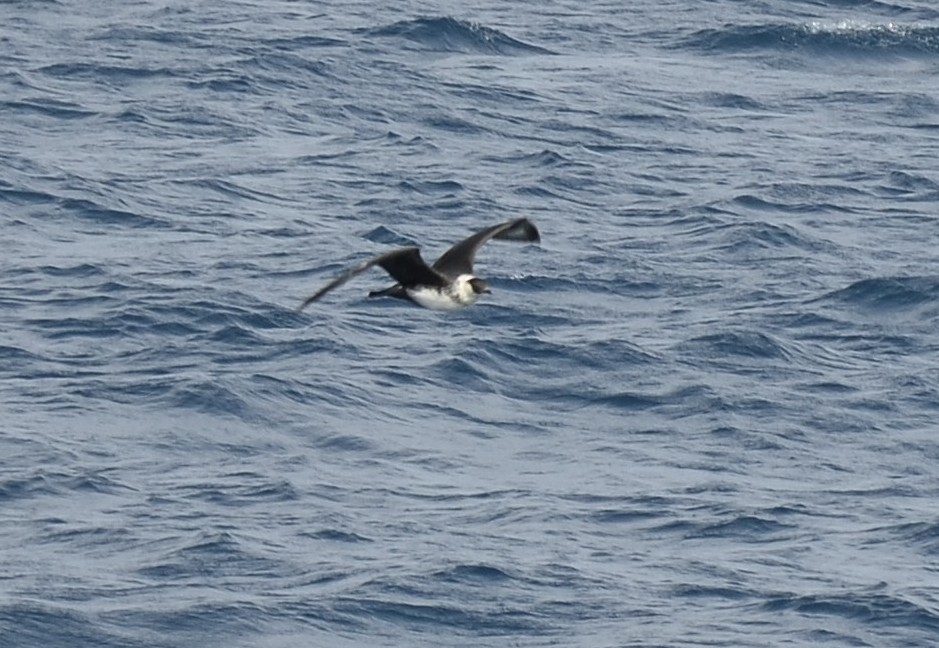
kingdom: Animalia
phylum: Chordata
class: Aves
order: Charadriiformes
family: Stercorariidae
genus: Stercorarius
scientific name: Stercorarius pomarinus
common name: Pomarine jaeger
